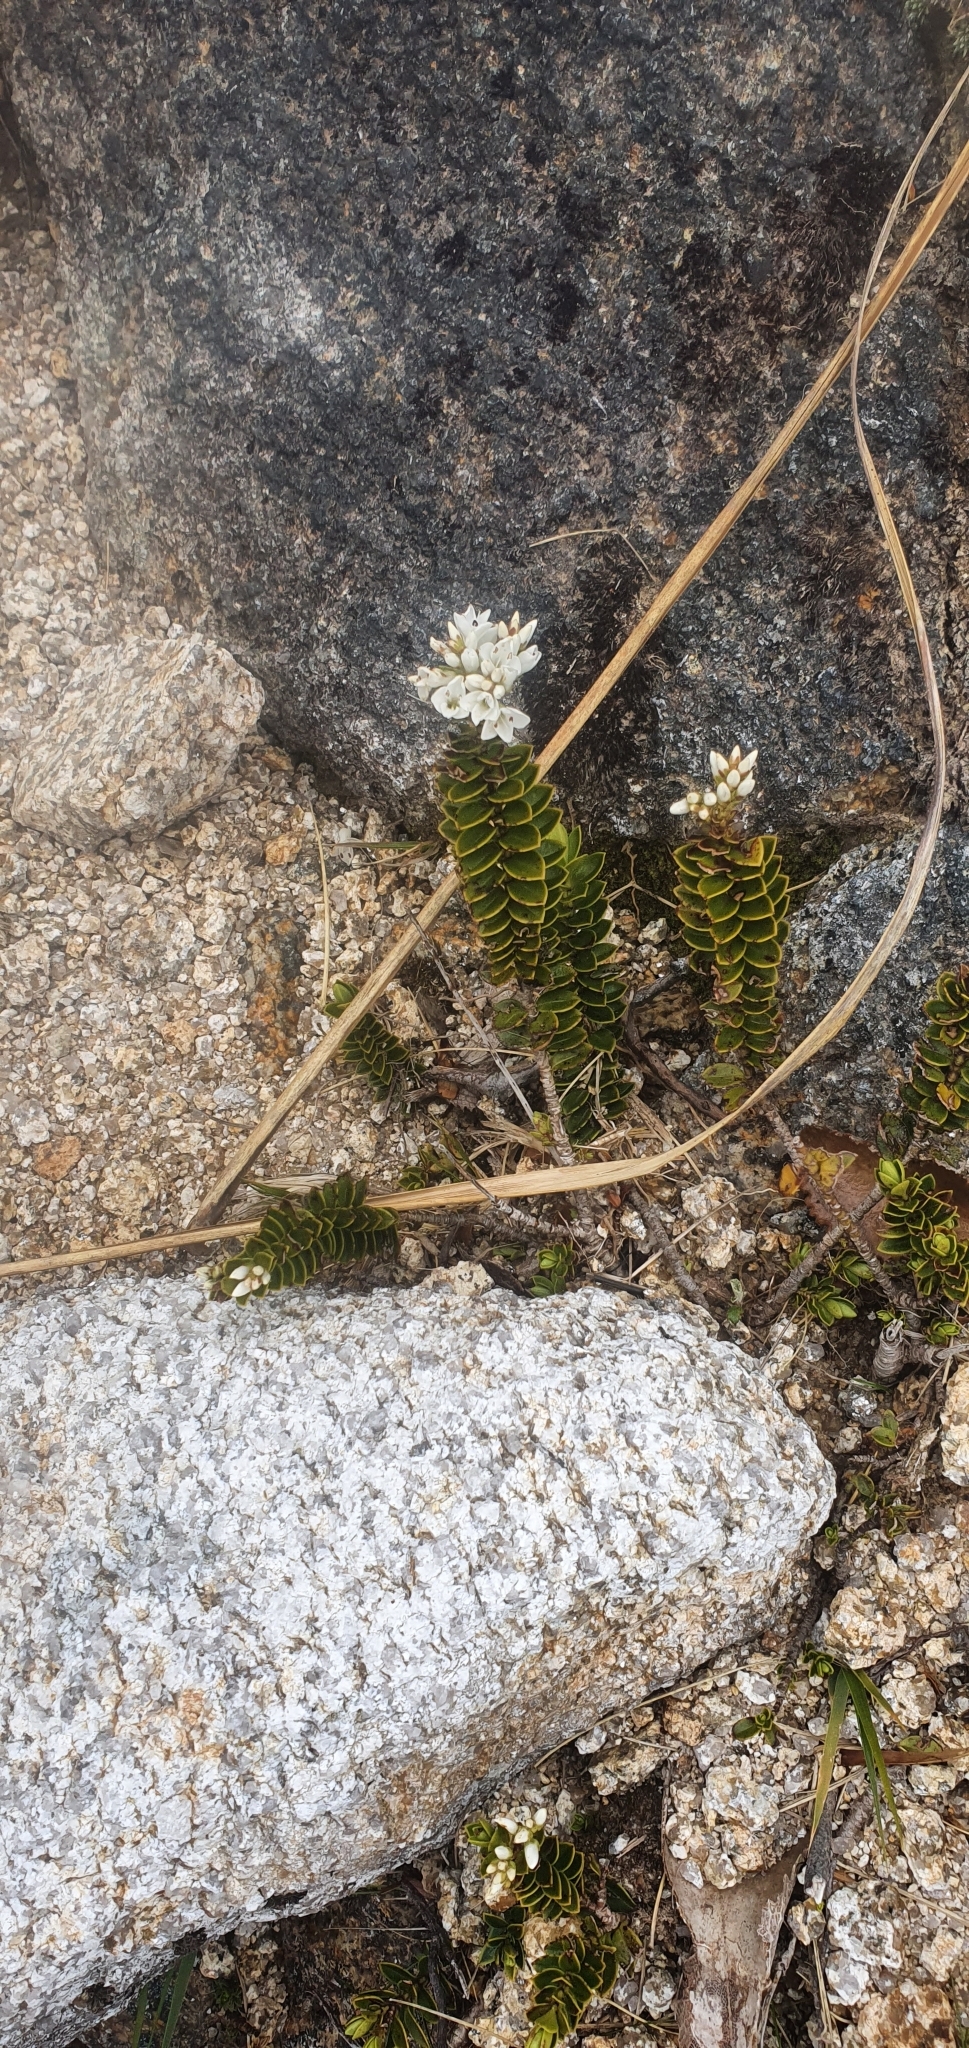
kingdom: Plantae
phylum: Tracheophyta
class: Magnoliopsida
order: Lamiales
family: Plantaginaceae
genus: Veronica
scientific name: Veronica canterburiensis
